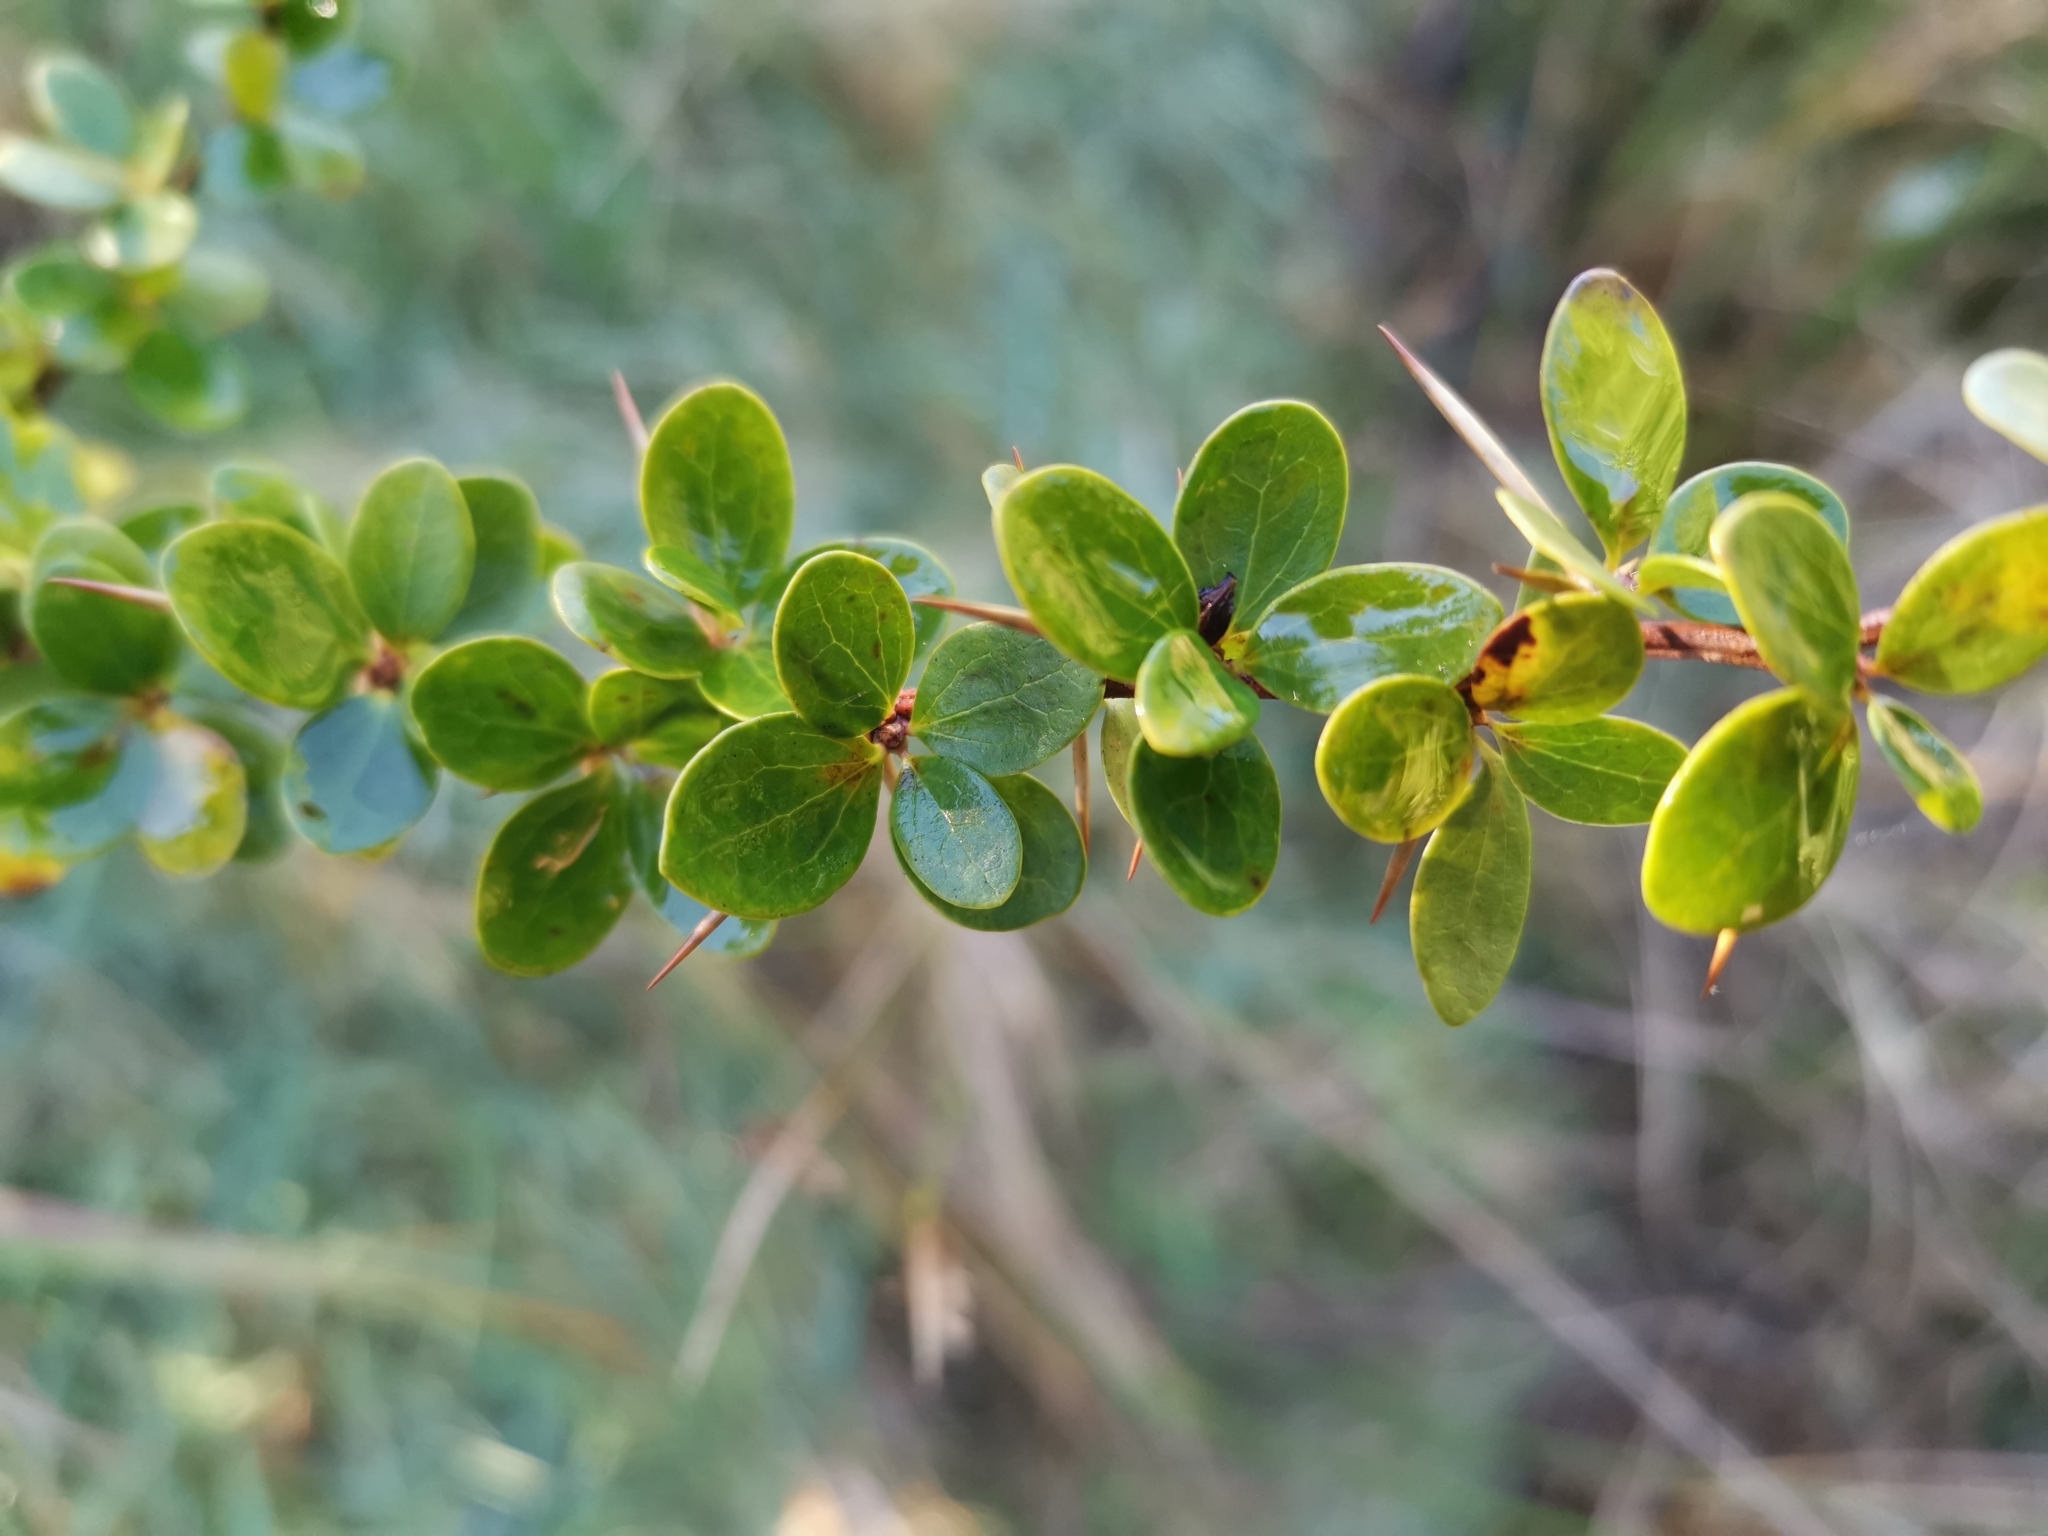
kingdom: Plantae
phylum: Tracheophyta
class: Magnoliopsida
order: Ranunculales
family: Berberidaceae
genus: Berberis
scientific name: Berberis microphylla
